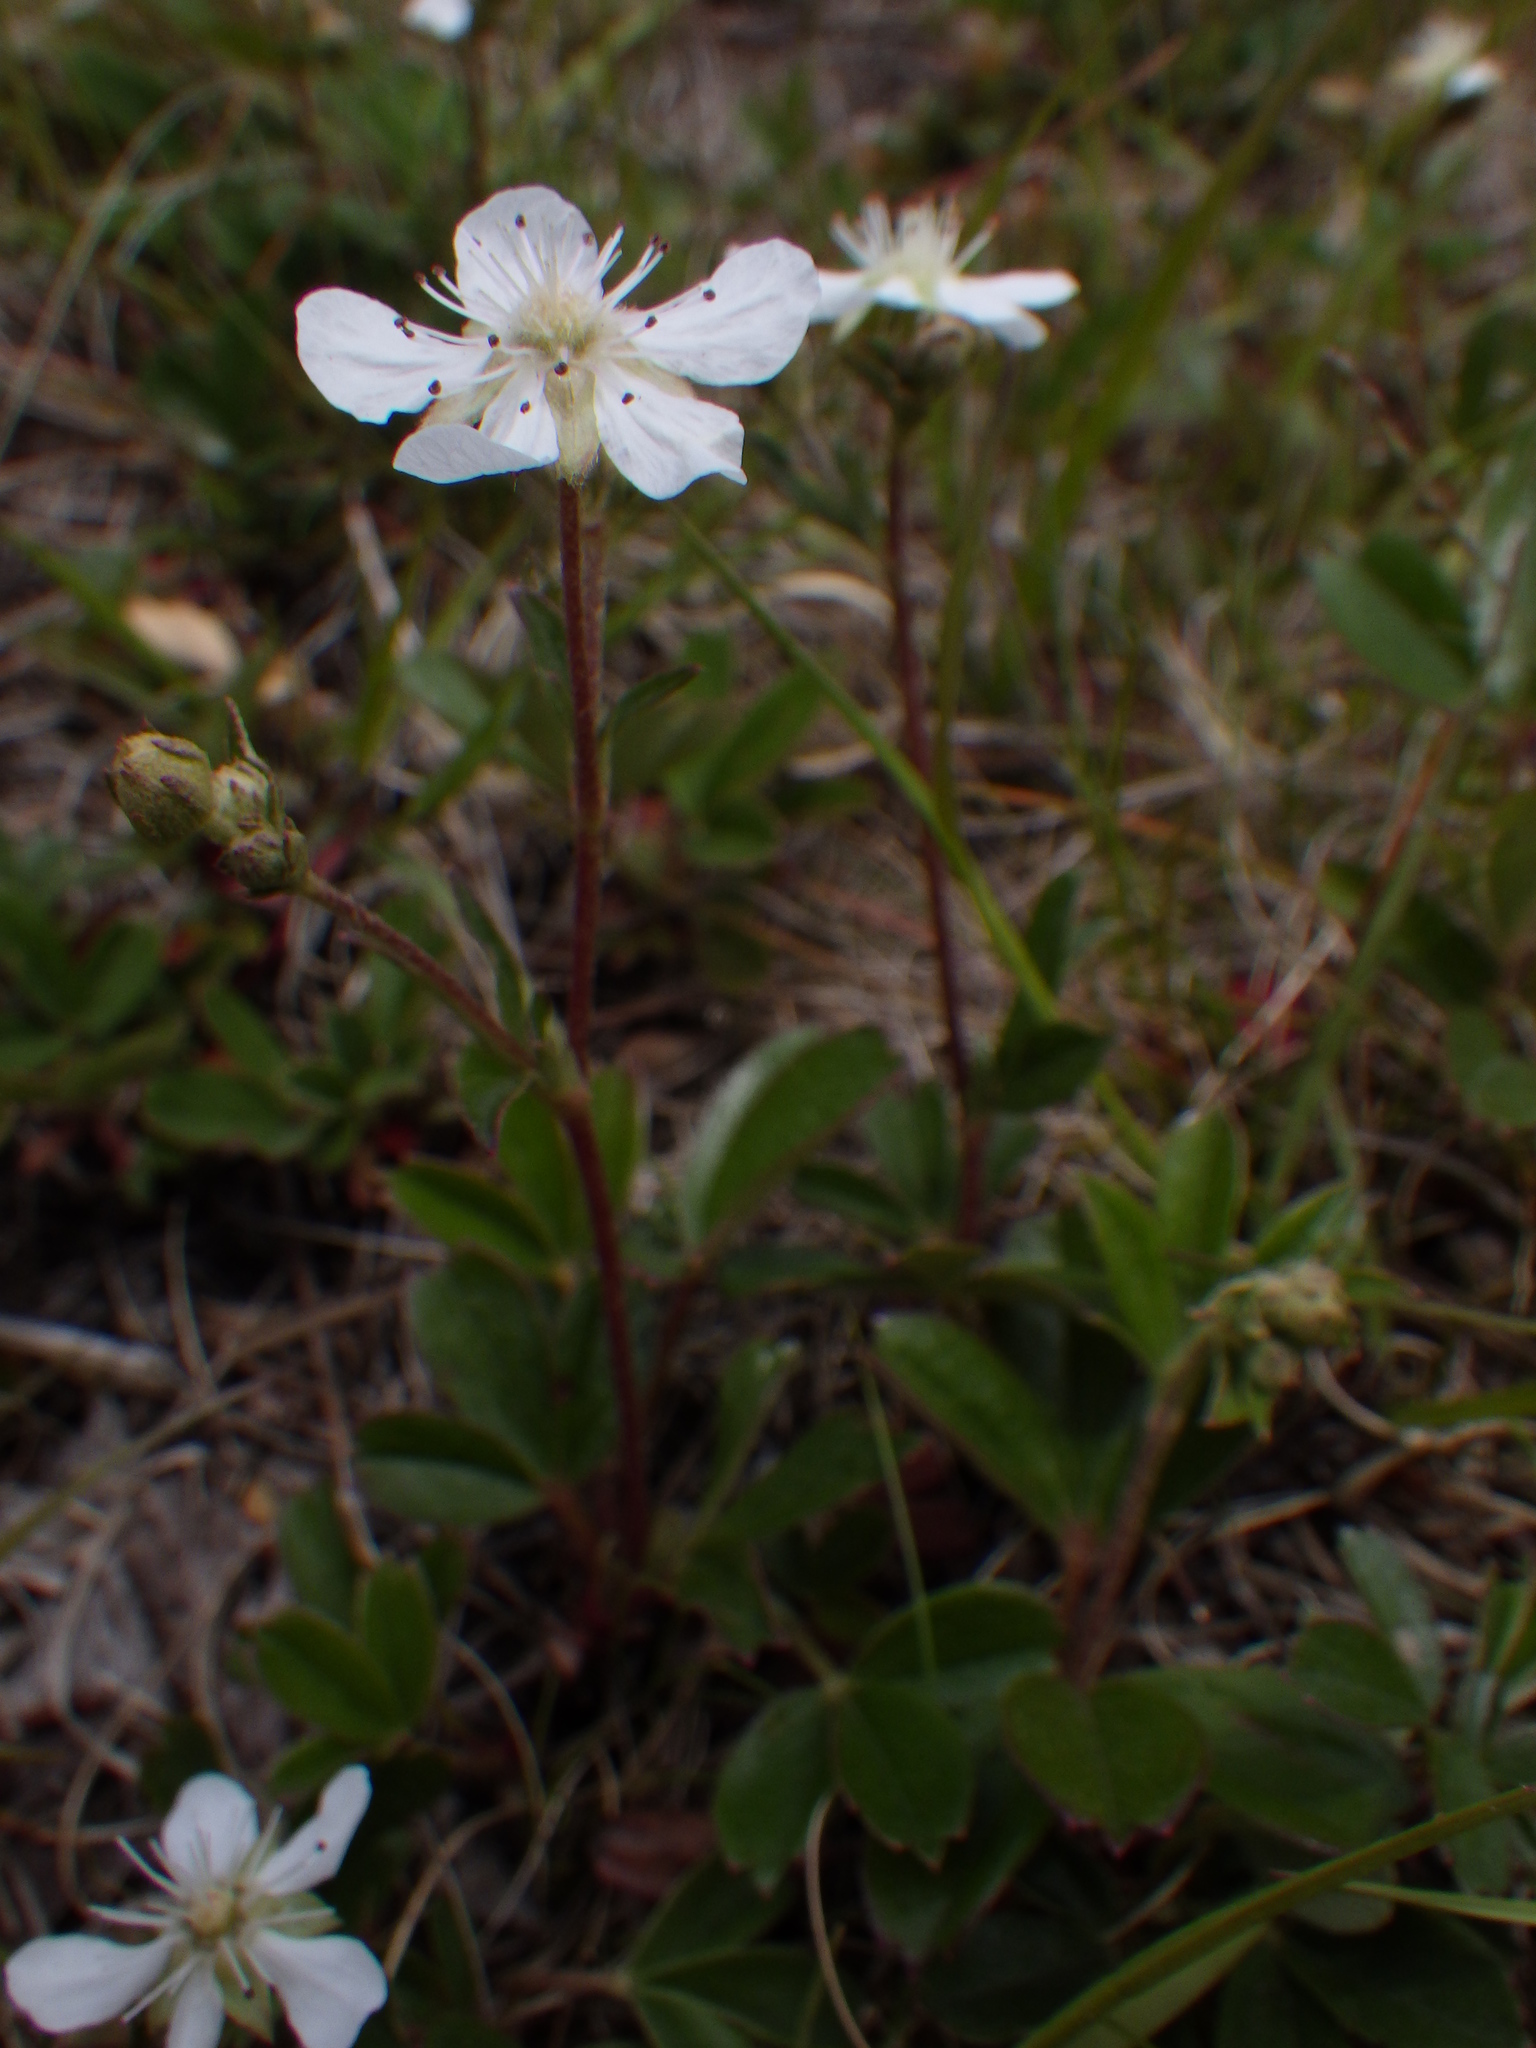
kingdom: Plantae
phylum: Tracheophyta
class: Magnoliopsida
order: Rosales
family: Rosaceae
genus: Sibbaldia
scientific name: Sibbaldia tridentata
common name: Three-toothed cinquefoil
